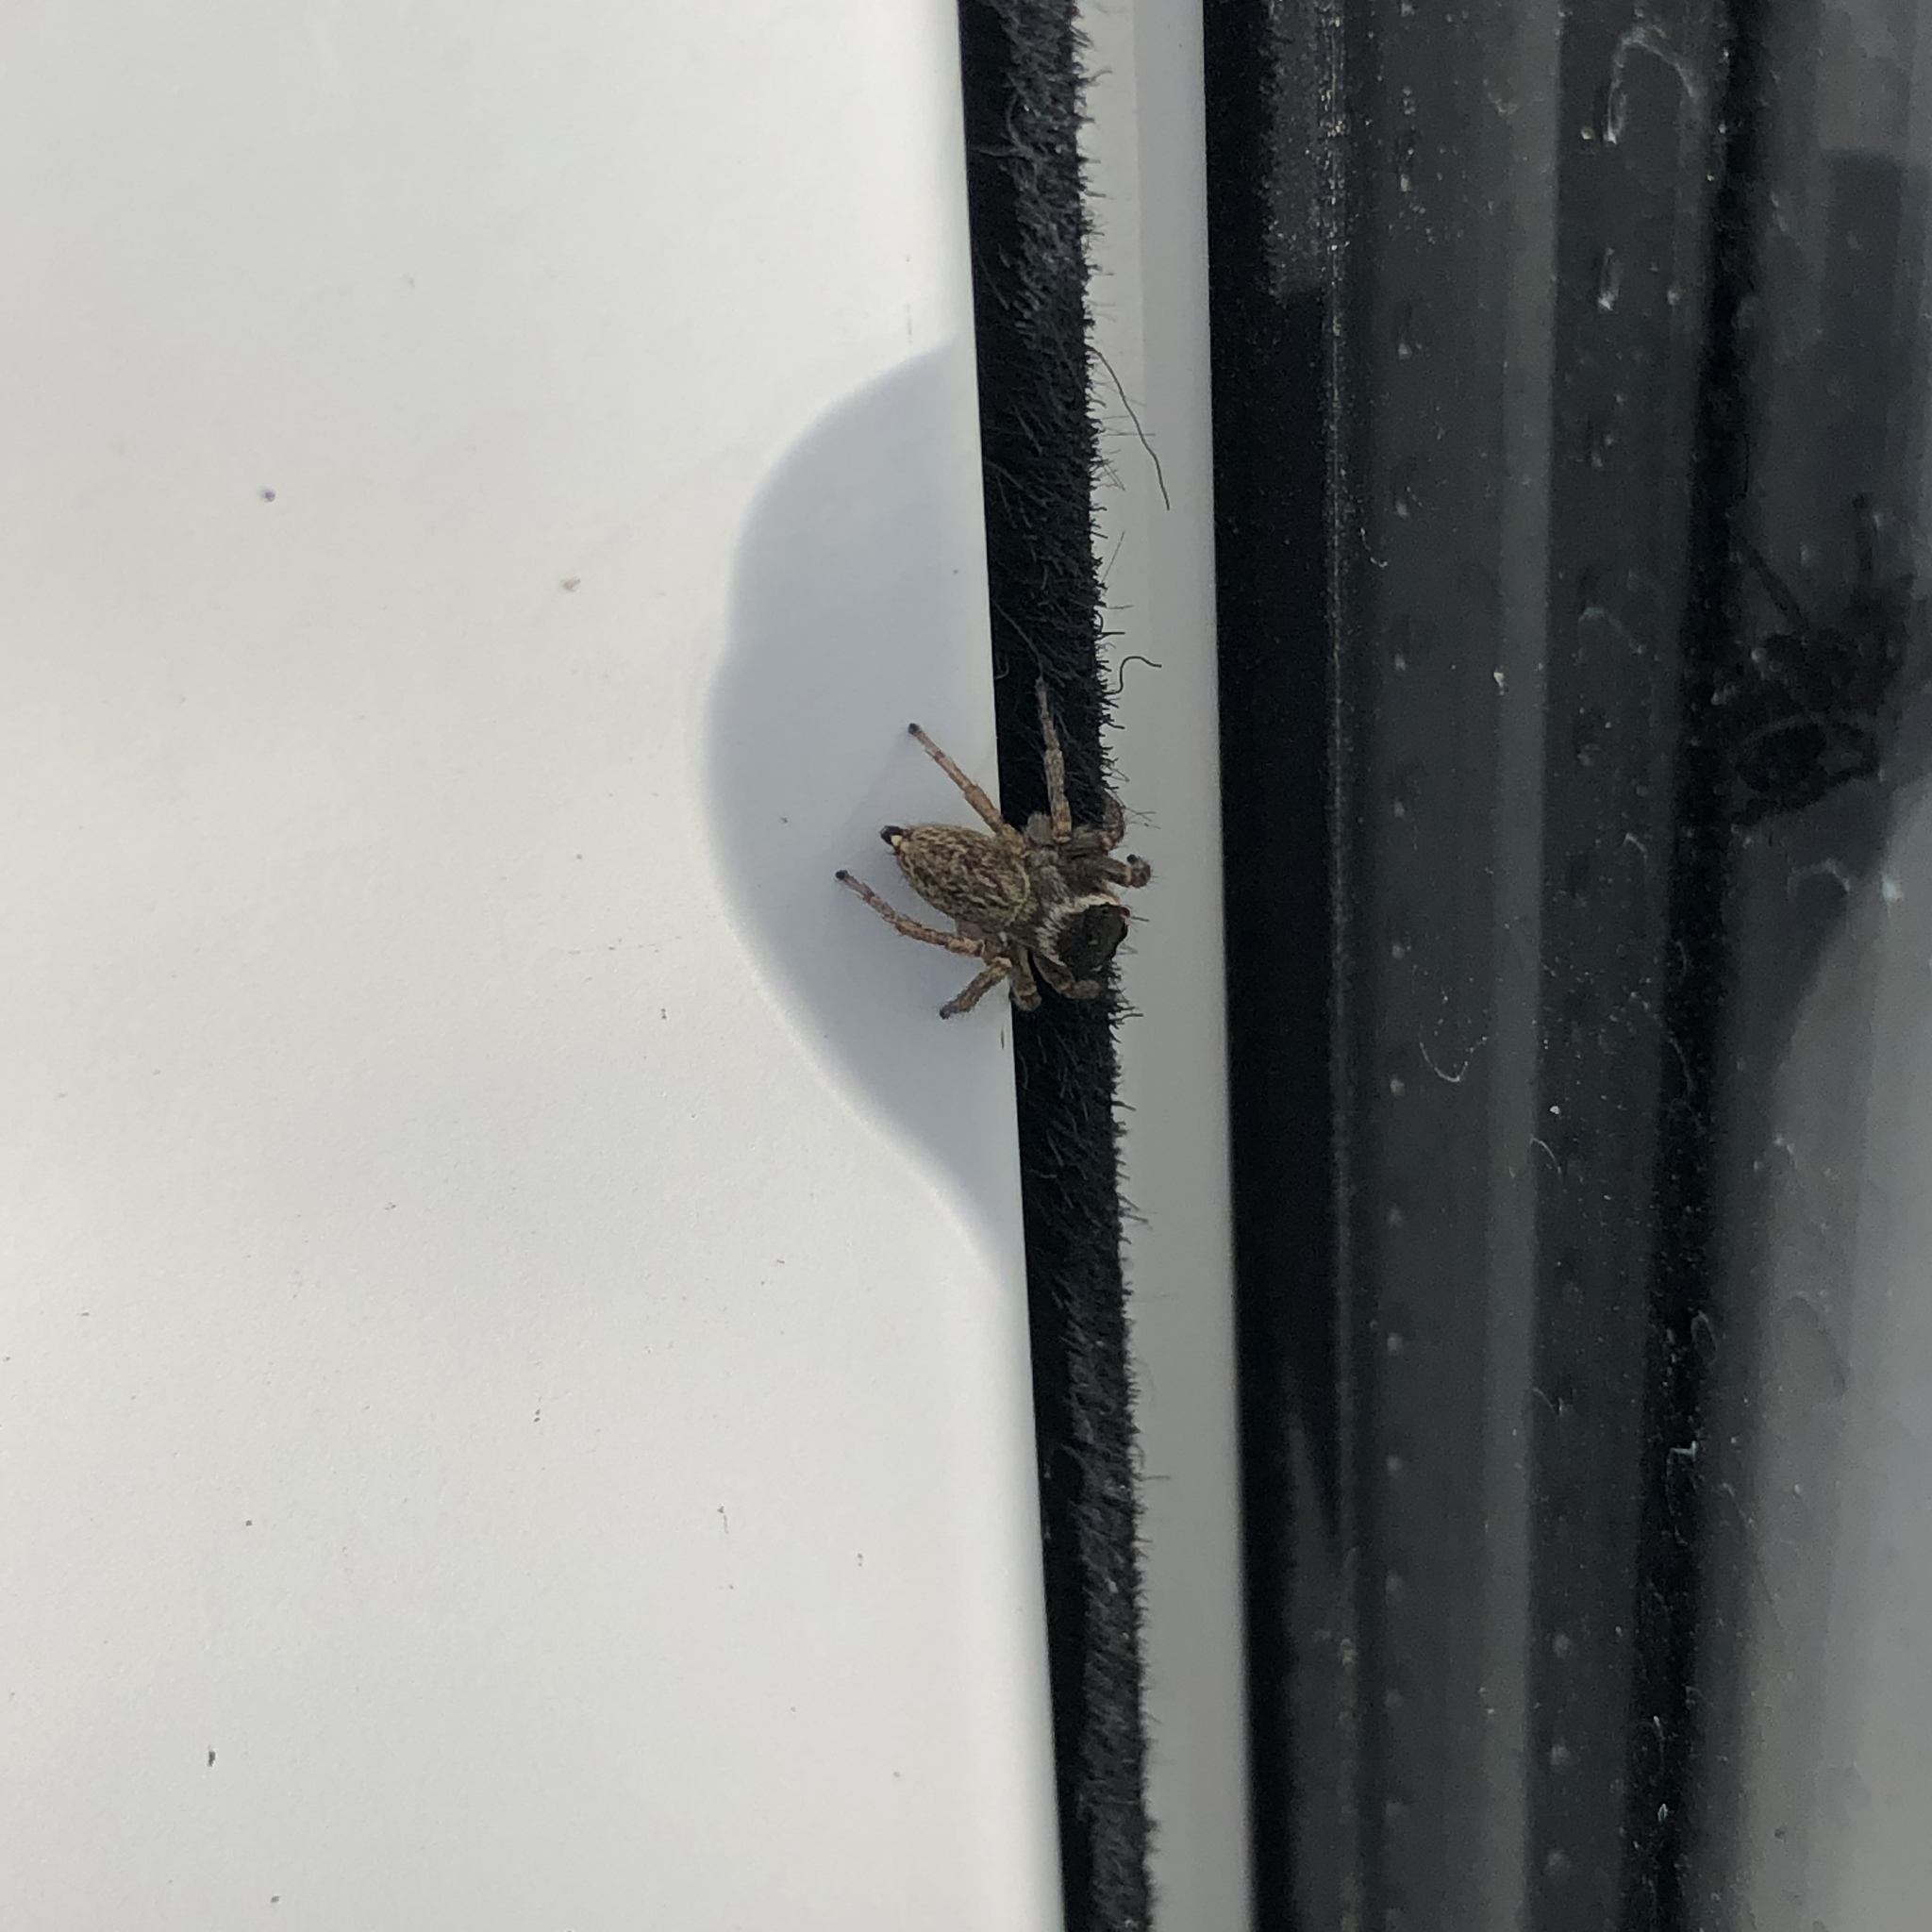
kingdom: Animalia
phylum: Arthropoda
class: Arachnida
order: Araneae
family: Salticidae
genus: Maratus
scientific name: Maratus griseus
